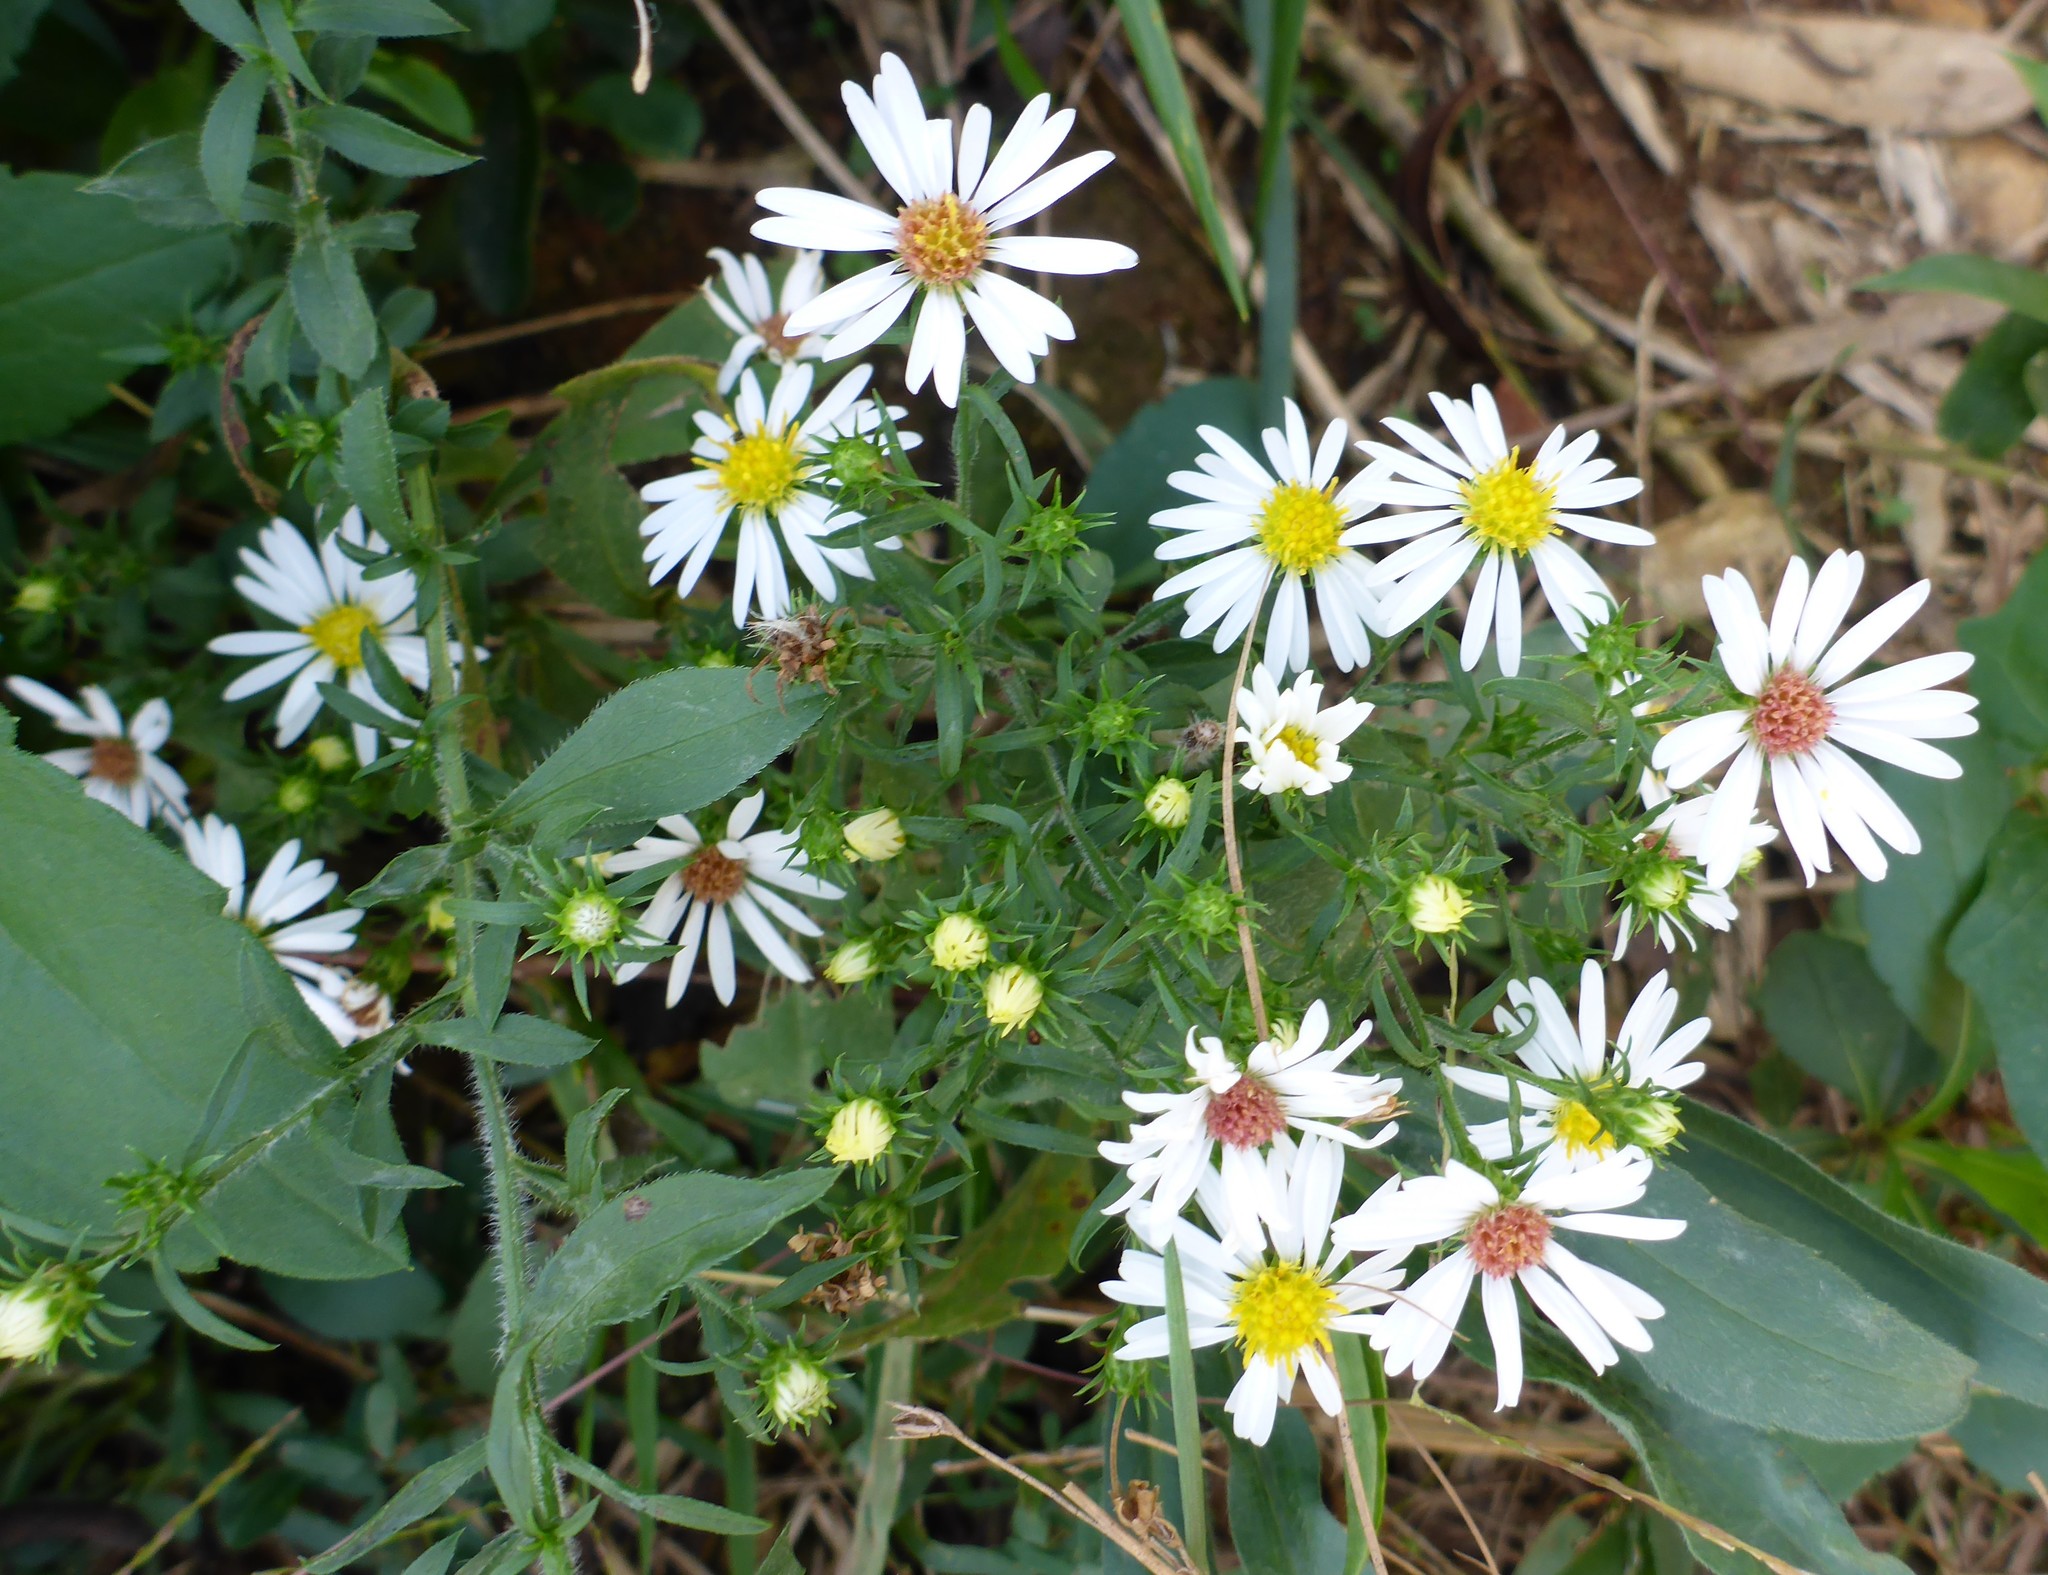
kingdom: Plantae
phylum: Tracheophyta
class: Magnoliopsida
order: Asterales
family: Asteraceae
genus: Symphyotrichum
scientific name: Symphyotrichum pilosum
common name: Awl aster
